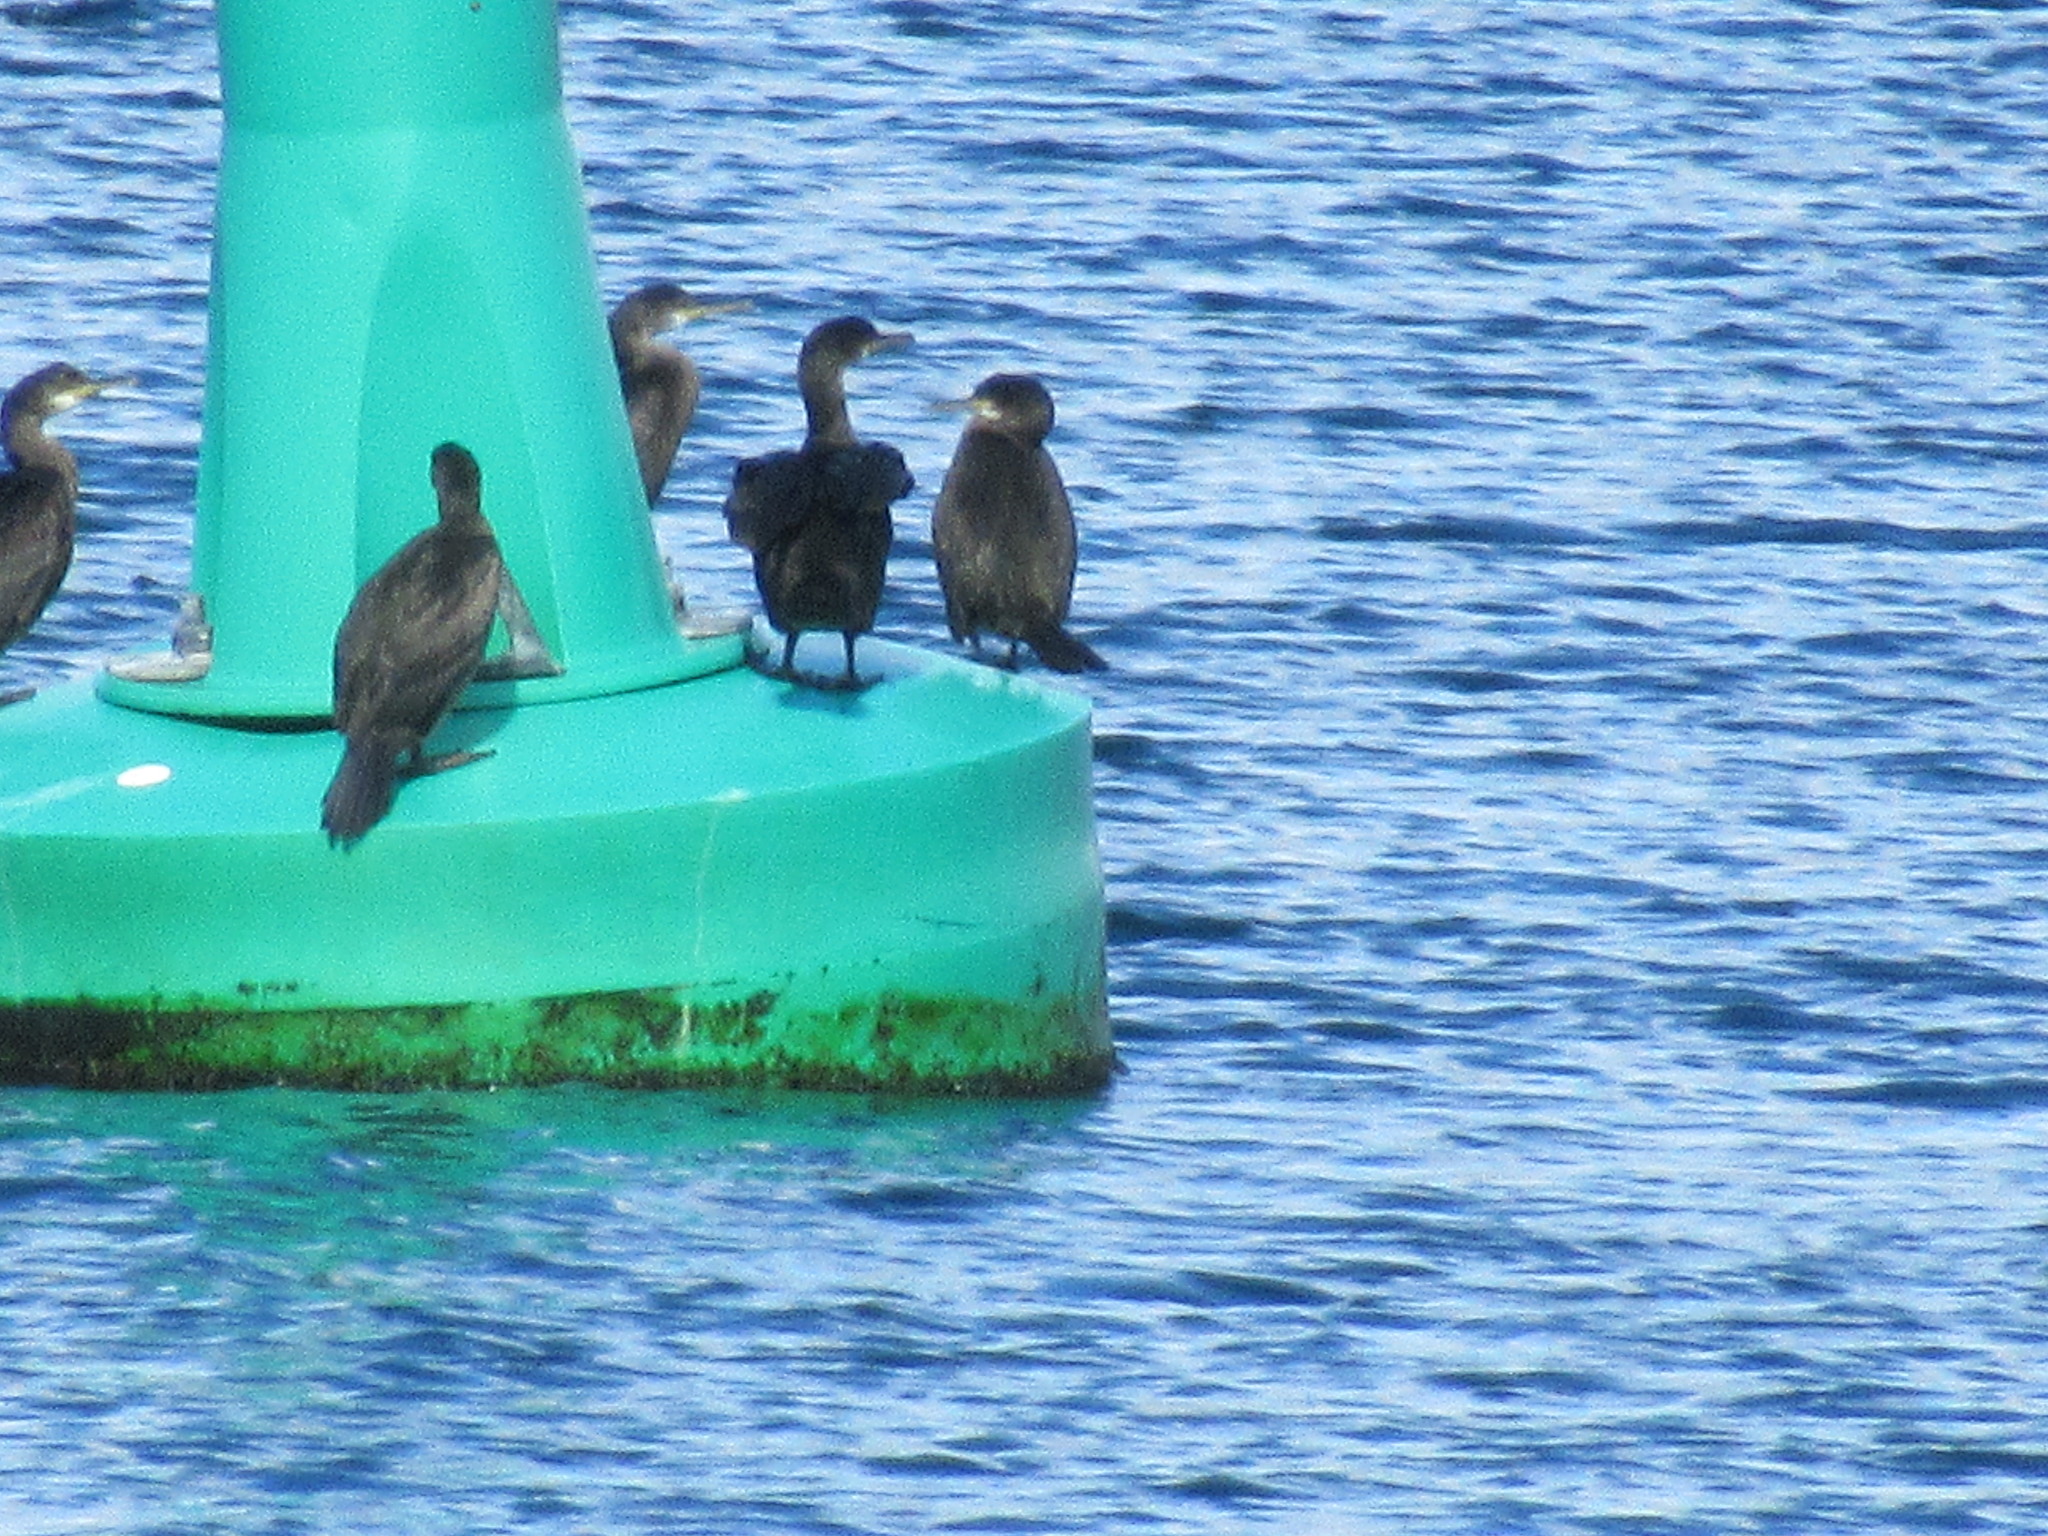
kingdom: Animalia
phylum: Chordata
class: Aves
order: Suliformes
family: Phalacrocoracidae
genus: Phalacrocorax
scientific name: Phalacrocorax carbo
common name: Great cormorant
